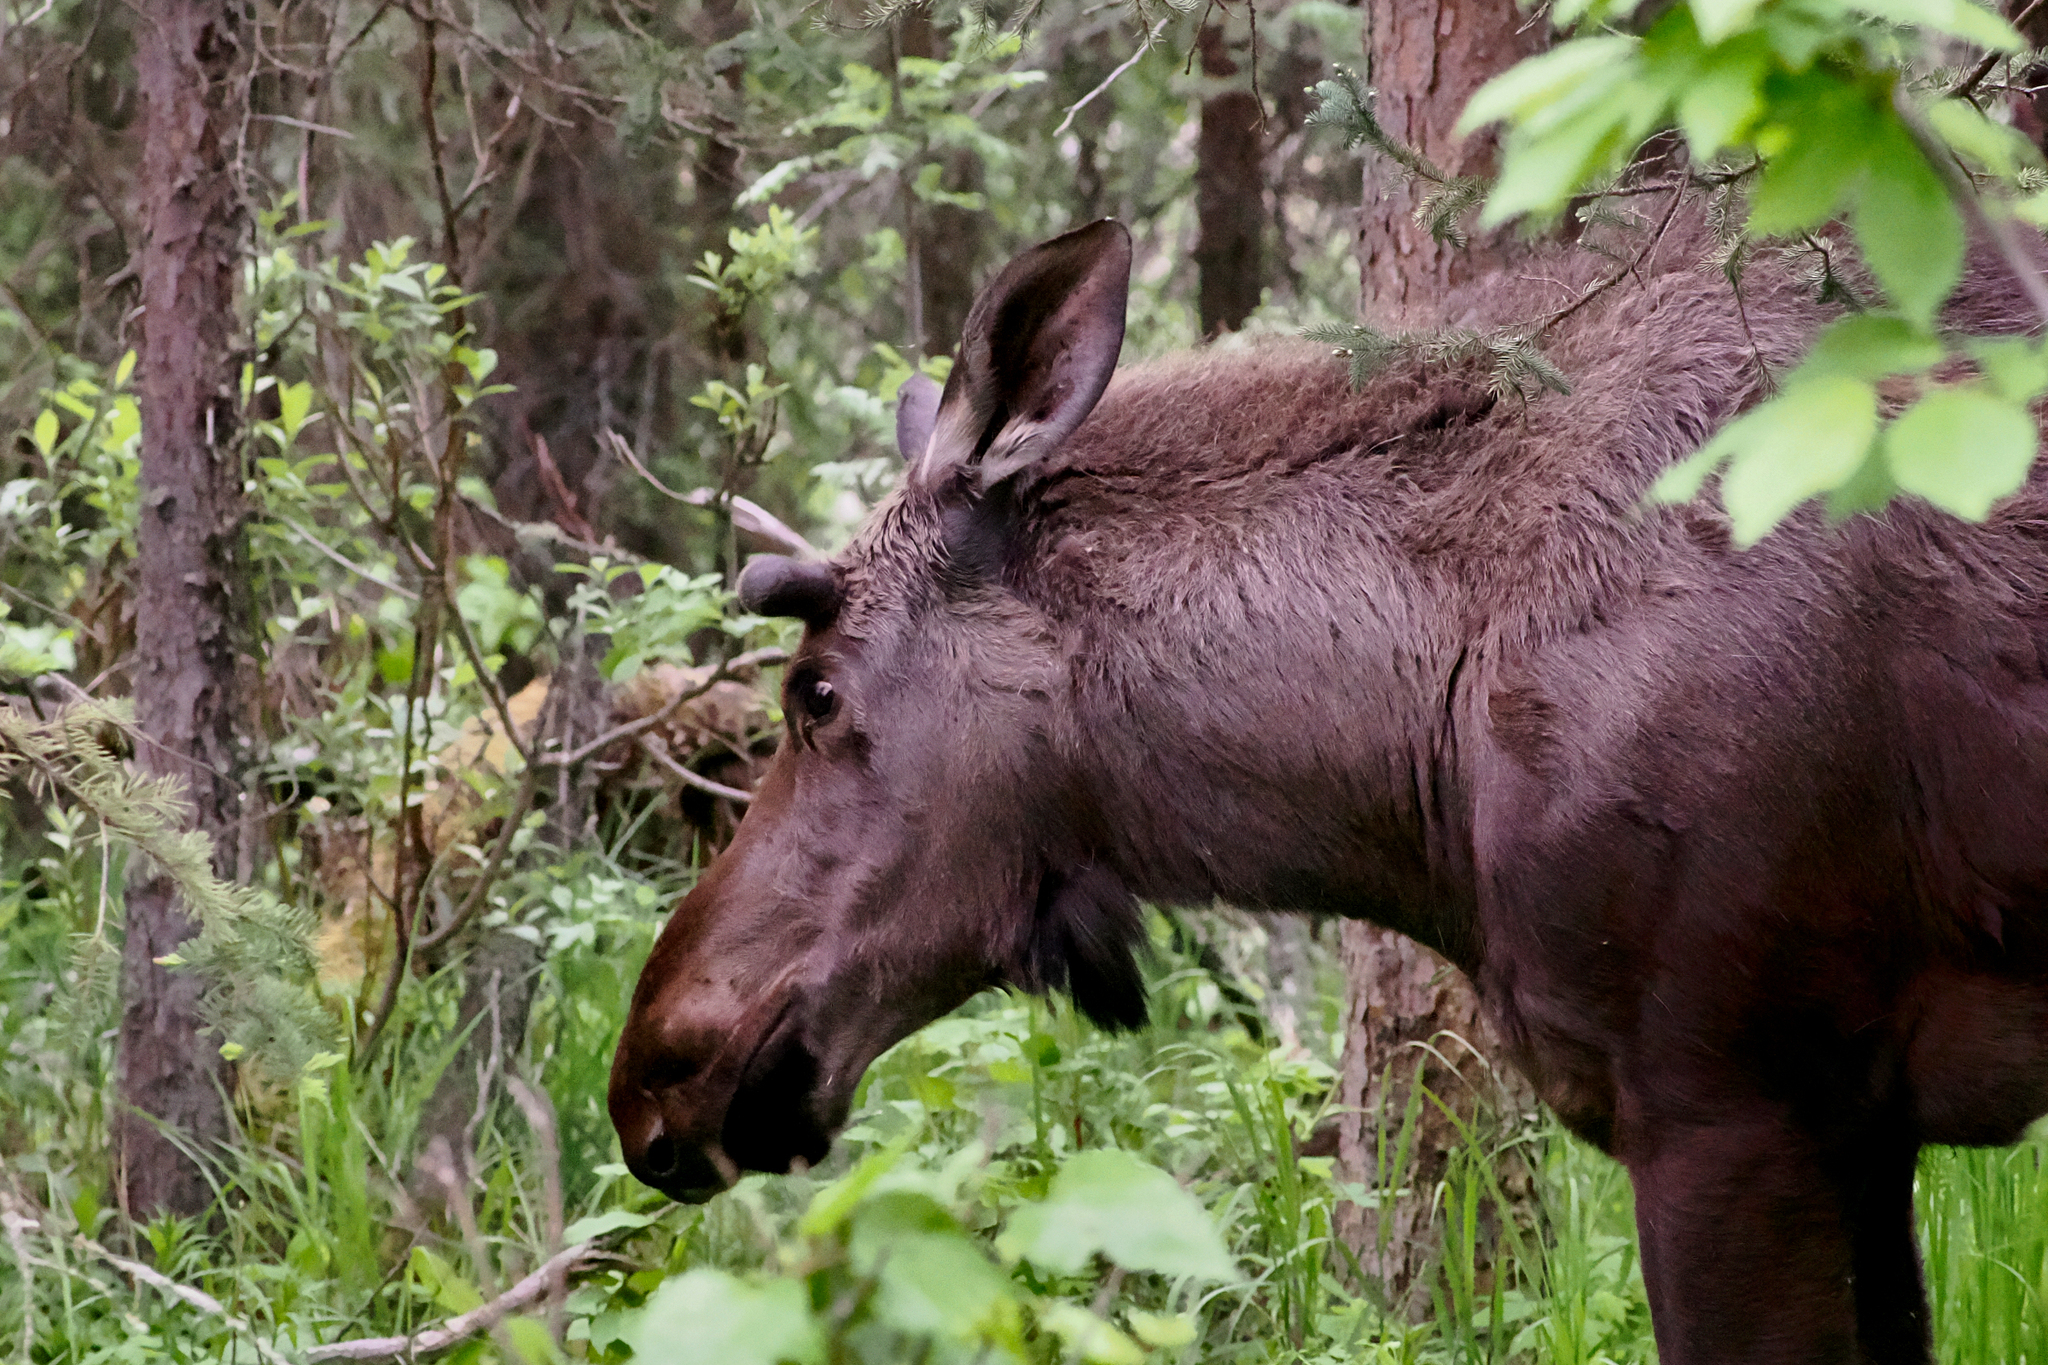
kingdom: Animalia
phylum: Chordata
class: Mammalia
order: Artiodactyla
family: Cervidae
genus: Alces
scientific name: Alces alces
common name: Moose
